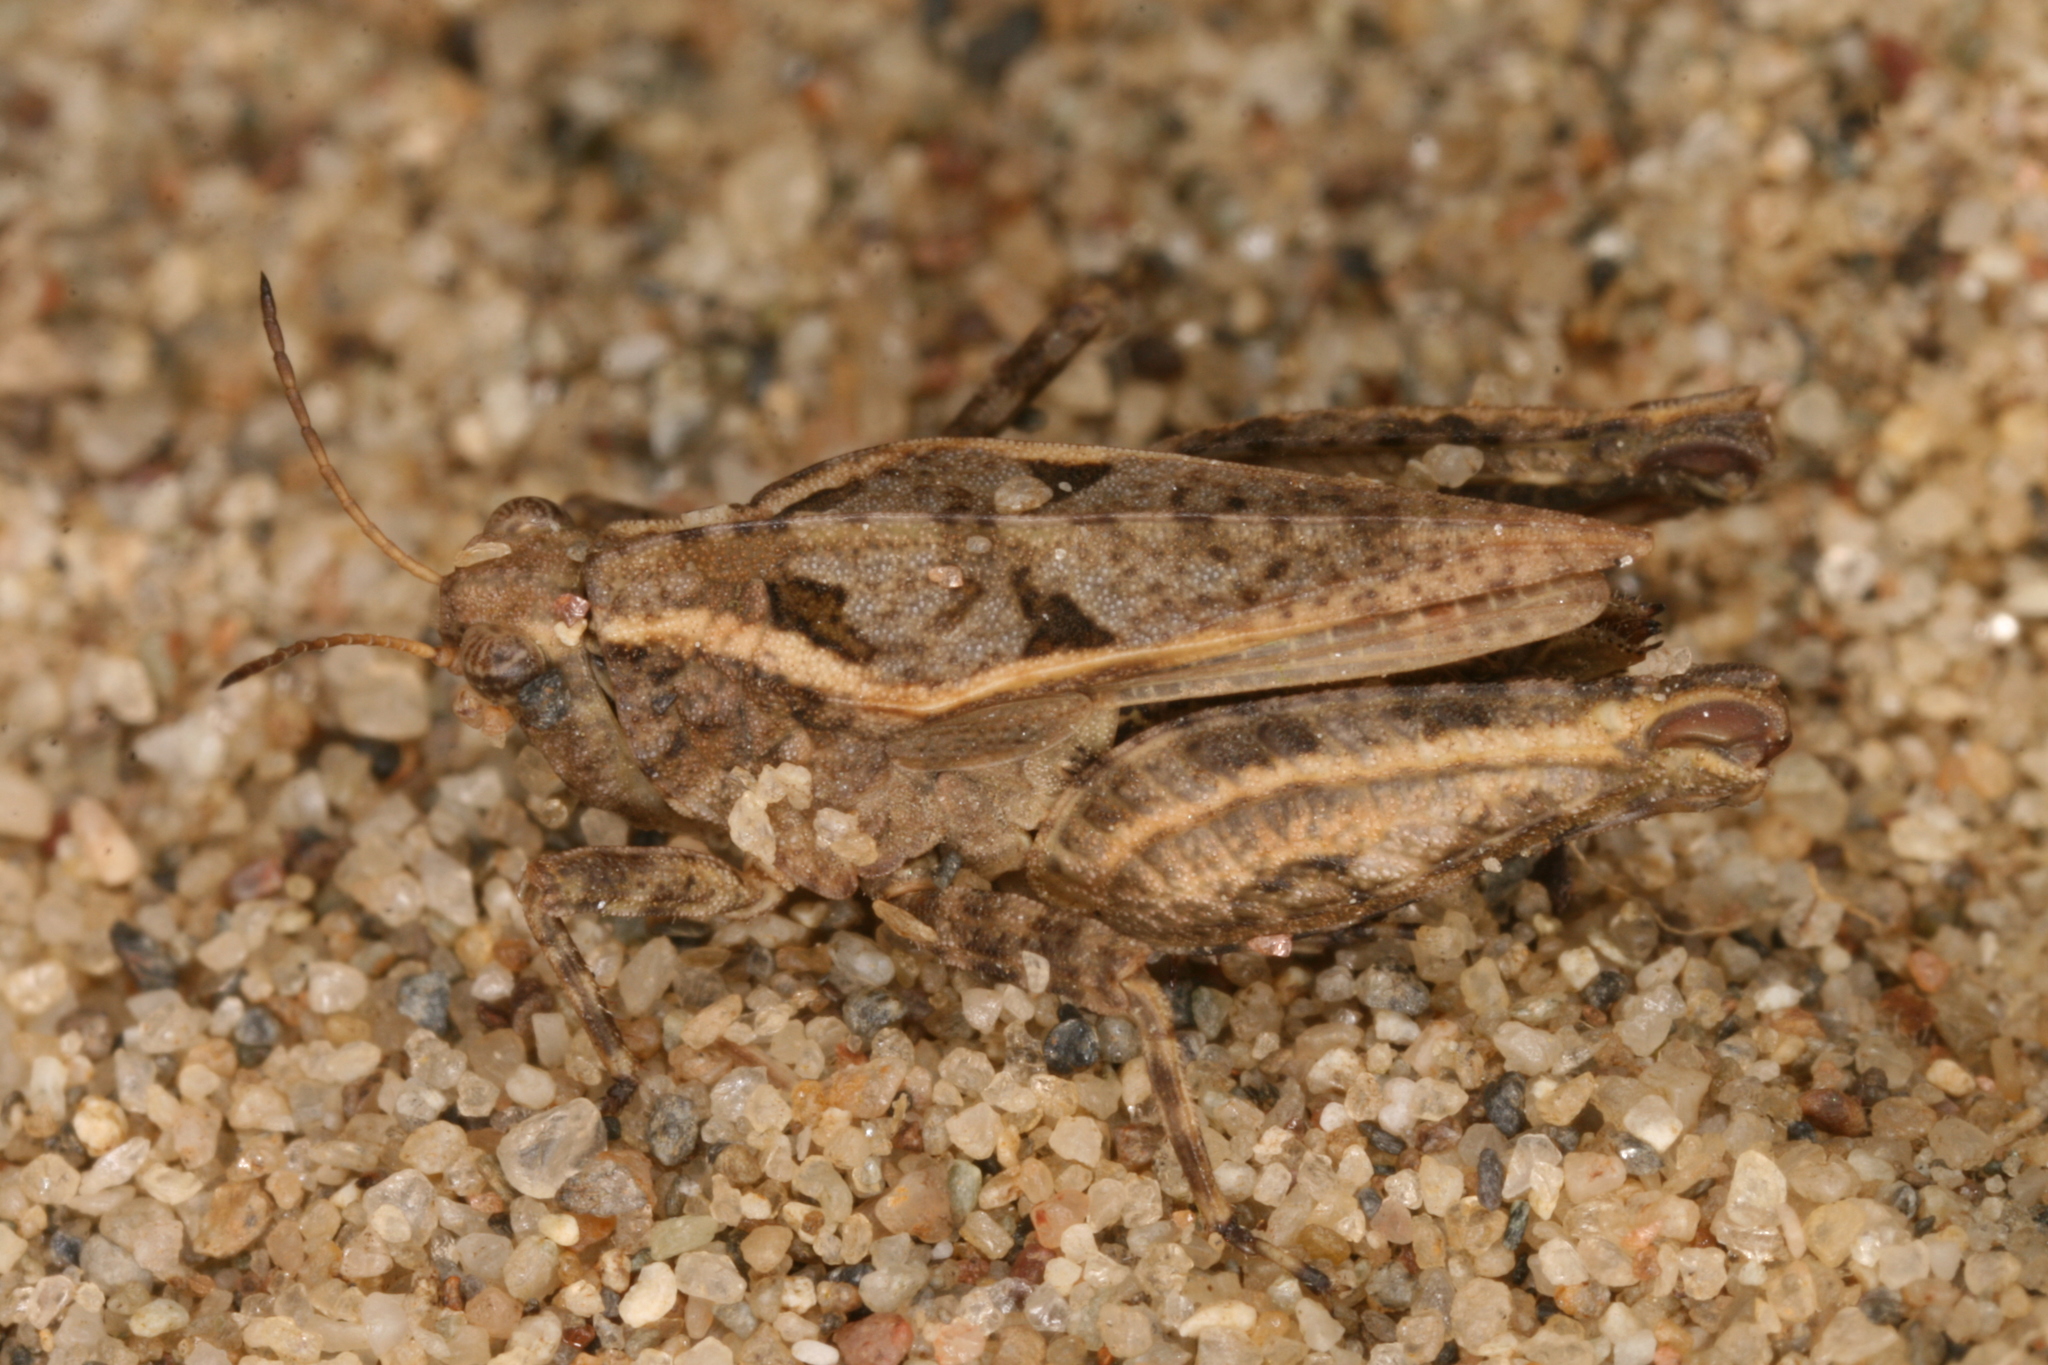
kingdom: Animalia
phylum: Arthropoda
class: Insecta
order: Orthoptera
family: Tetrigidae
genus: Tetrix
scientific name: Tetrix tenuicornis
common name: Long-horned groundhopper
